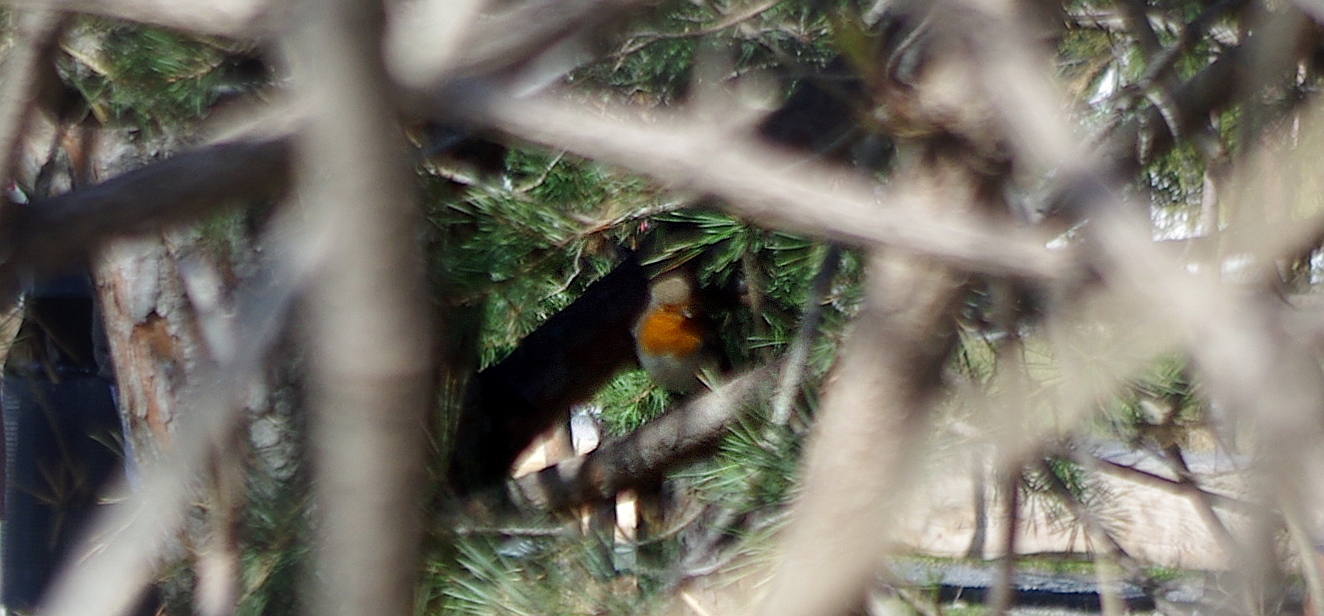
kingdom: Animalia
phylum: Chordata
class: Aves
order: Passeriformes
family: Muscicapidae
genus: Erithacus
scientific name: Erithacus rubecula
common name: European robin
